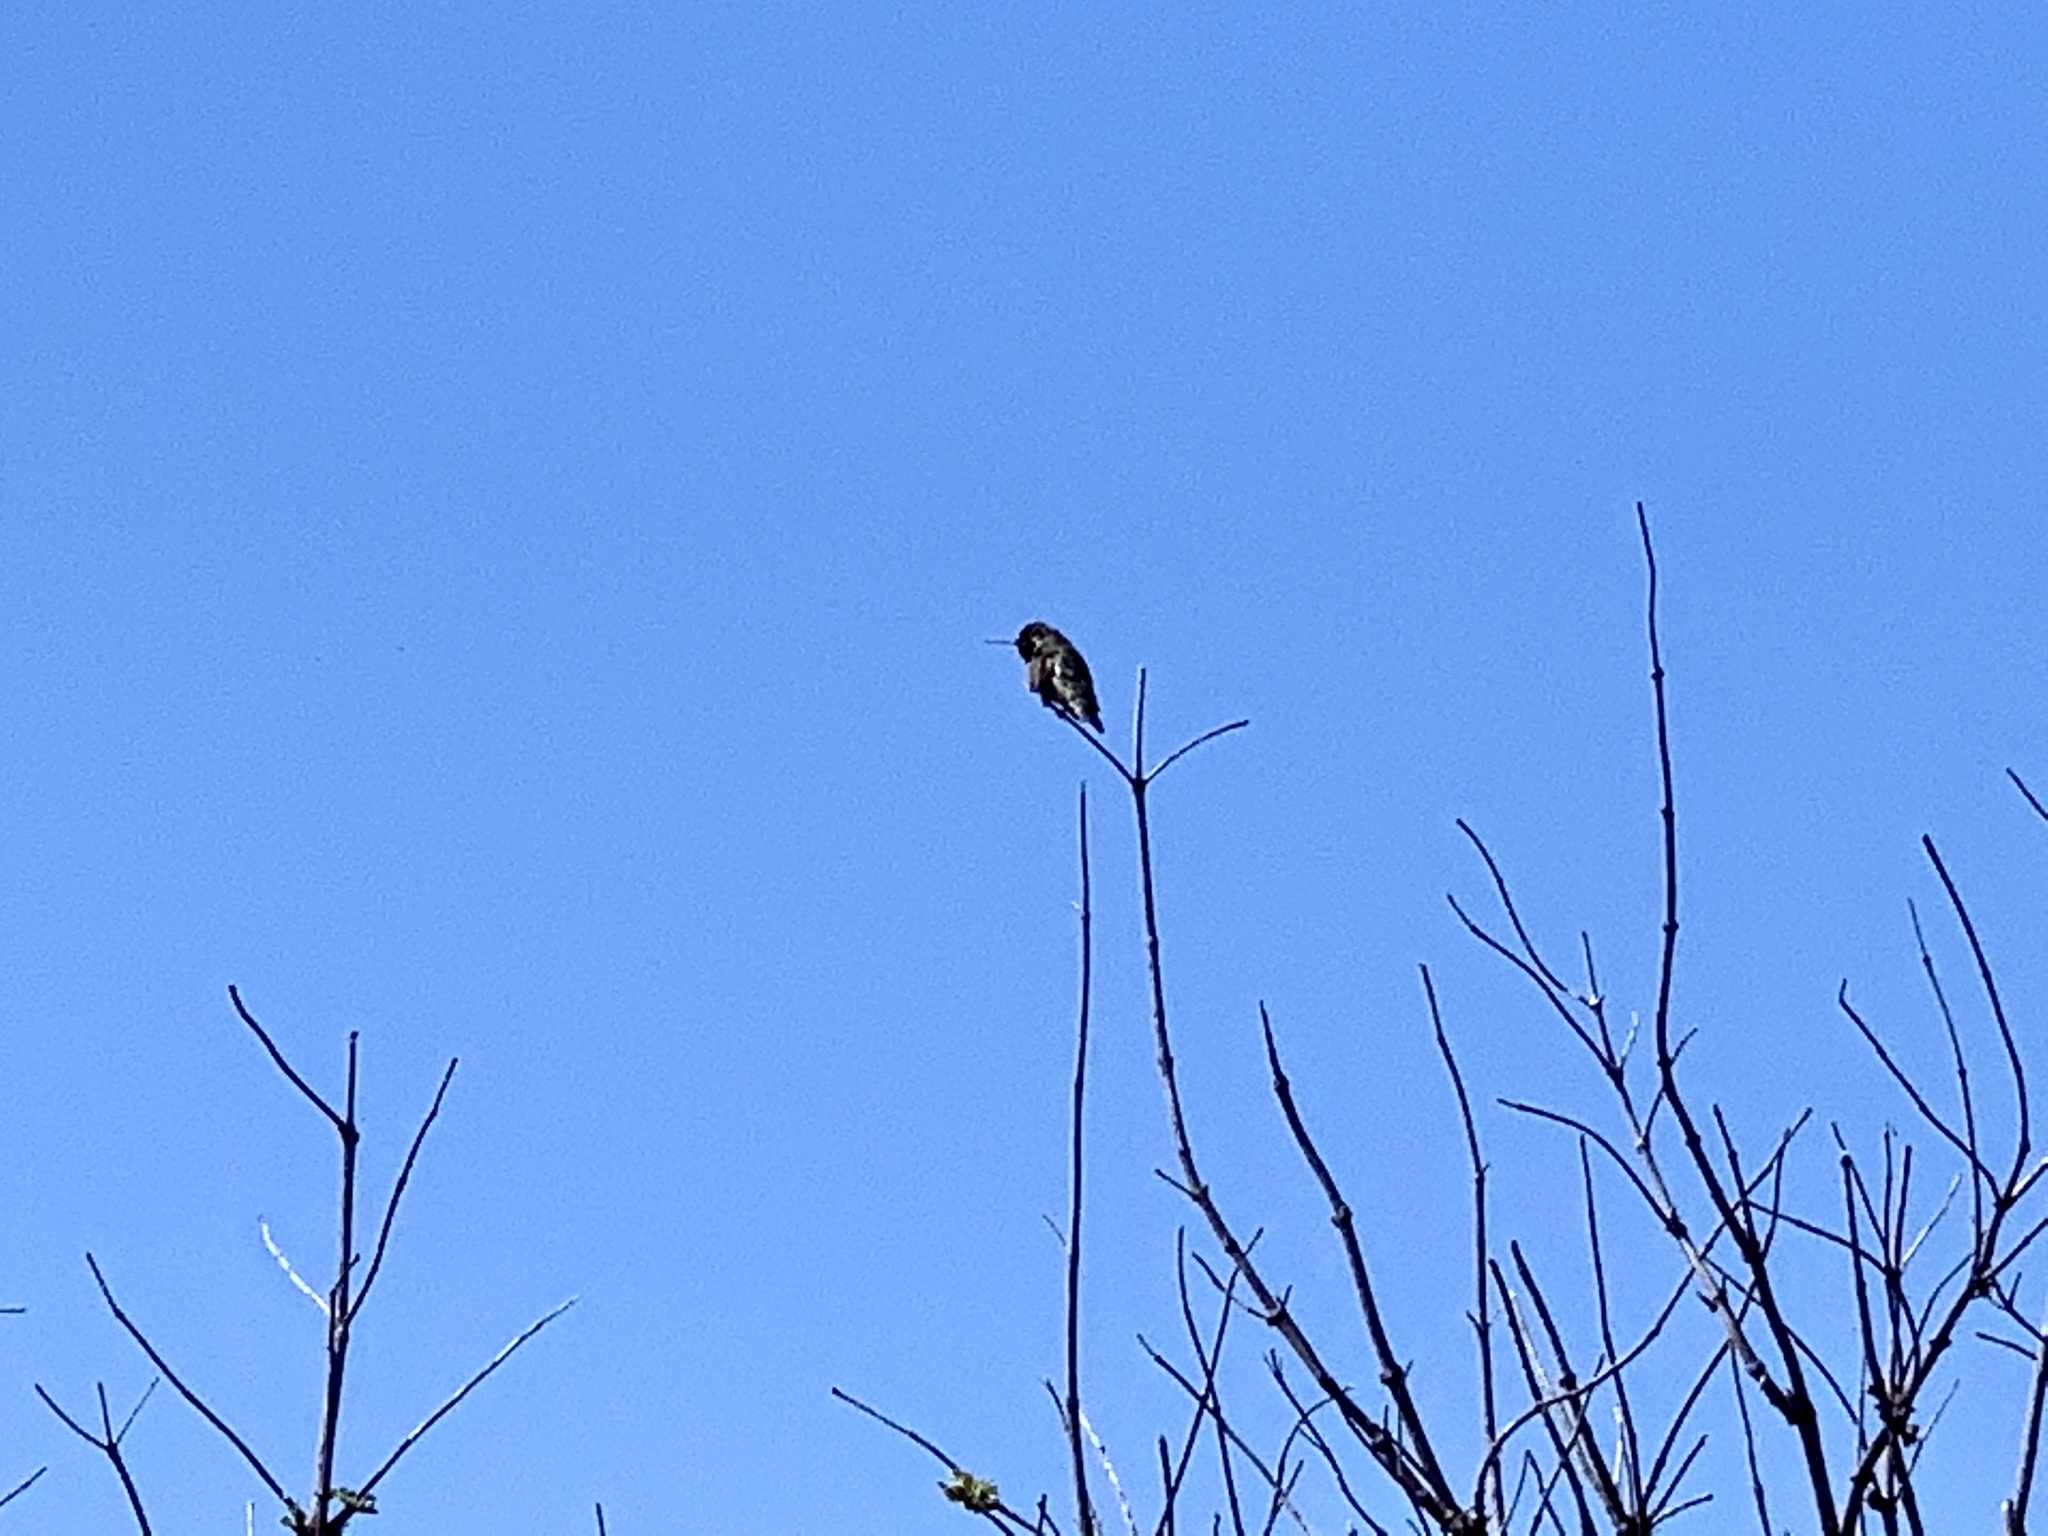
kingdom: Animalia
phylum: Chordata
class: Aves
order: Apodiformes
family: Trochilidae
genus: Calypte
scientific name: Calypte anna
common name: Anna's hummingbird
